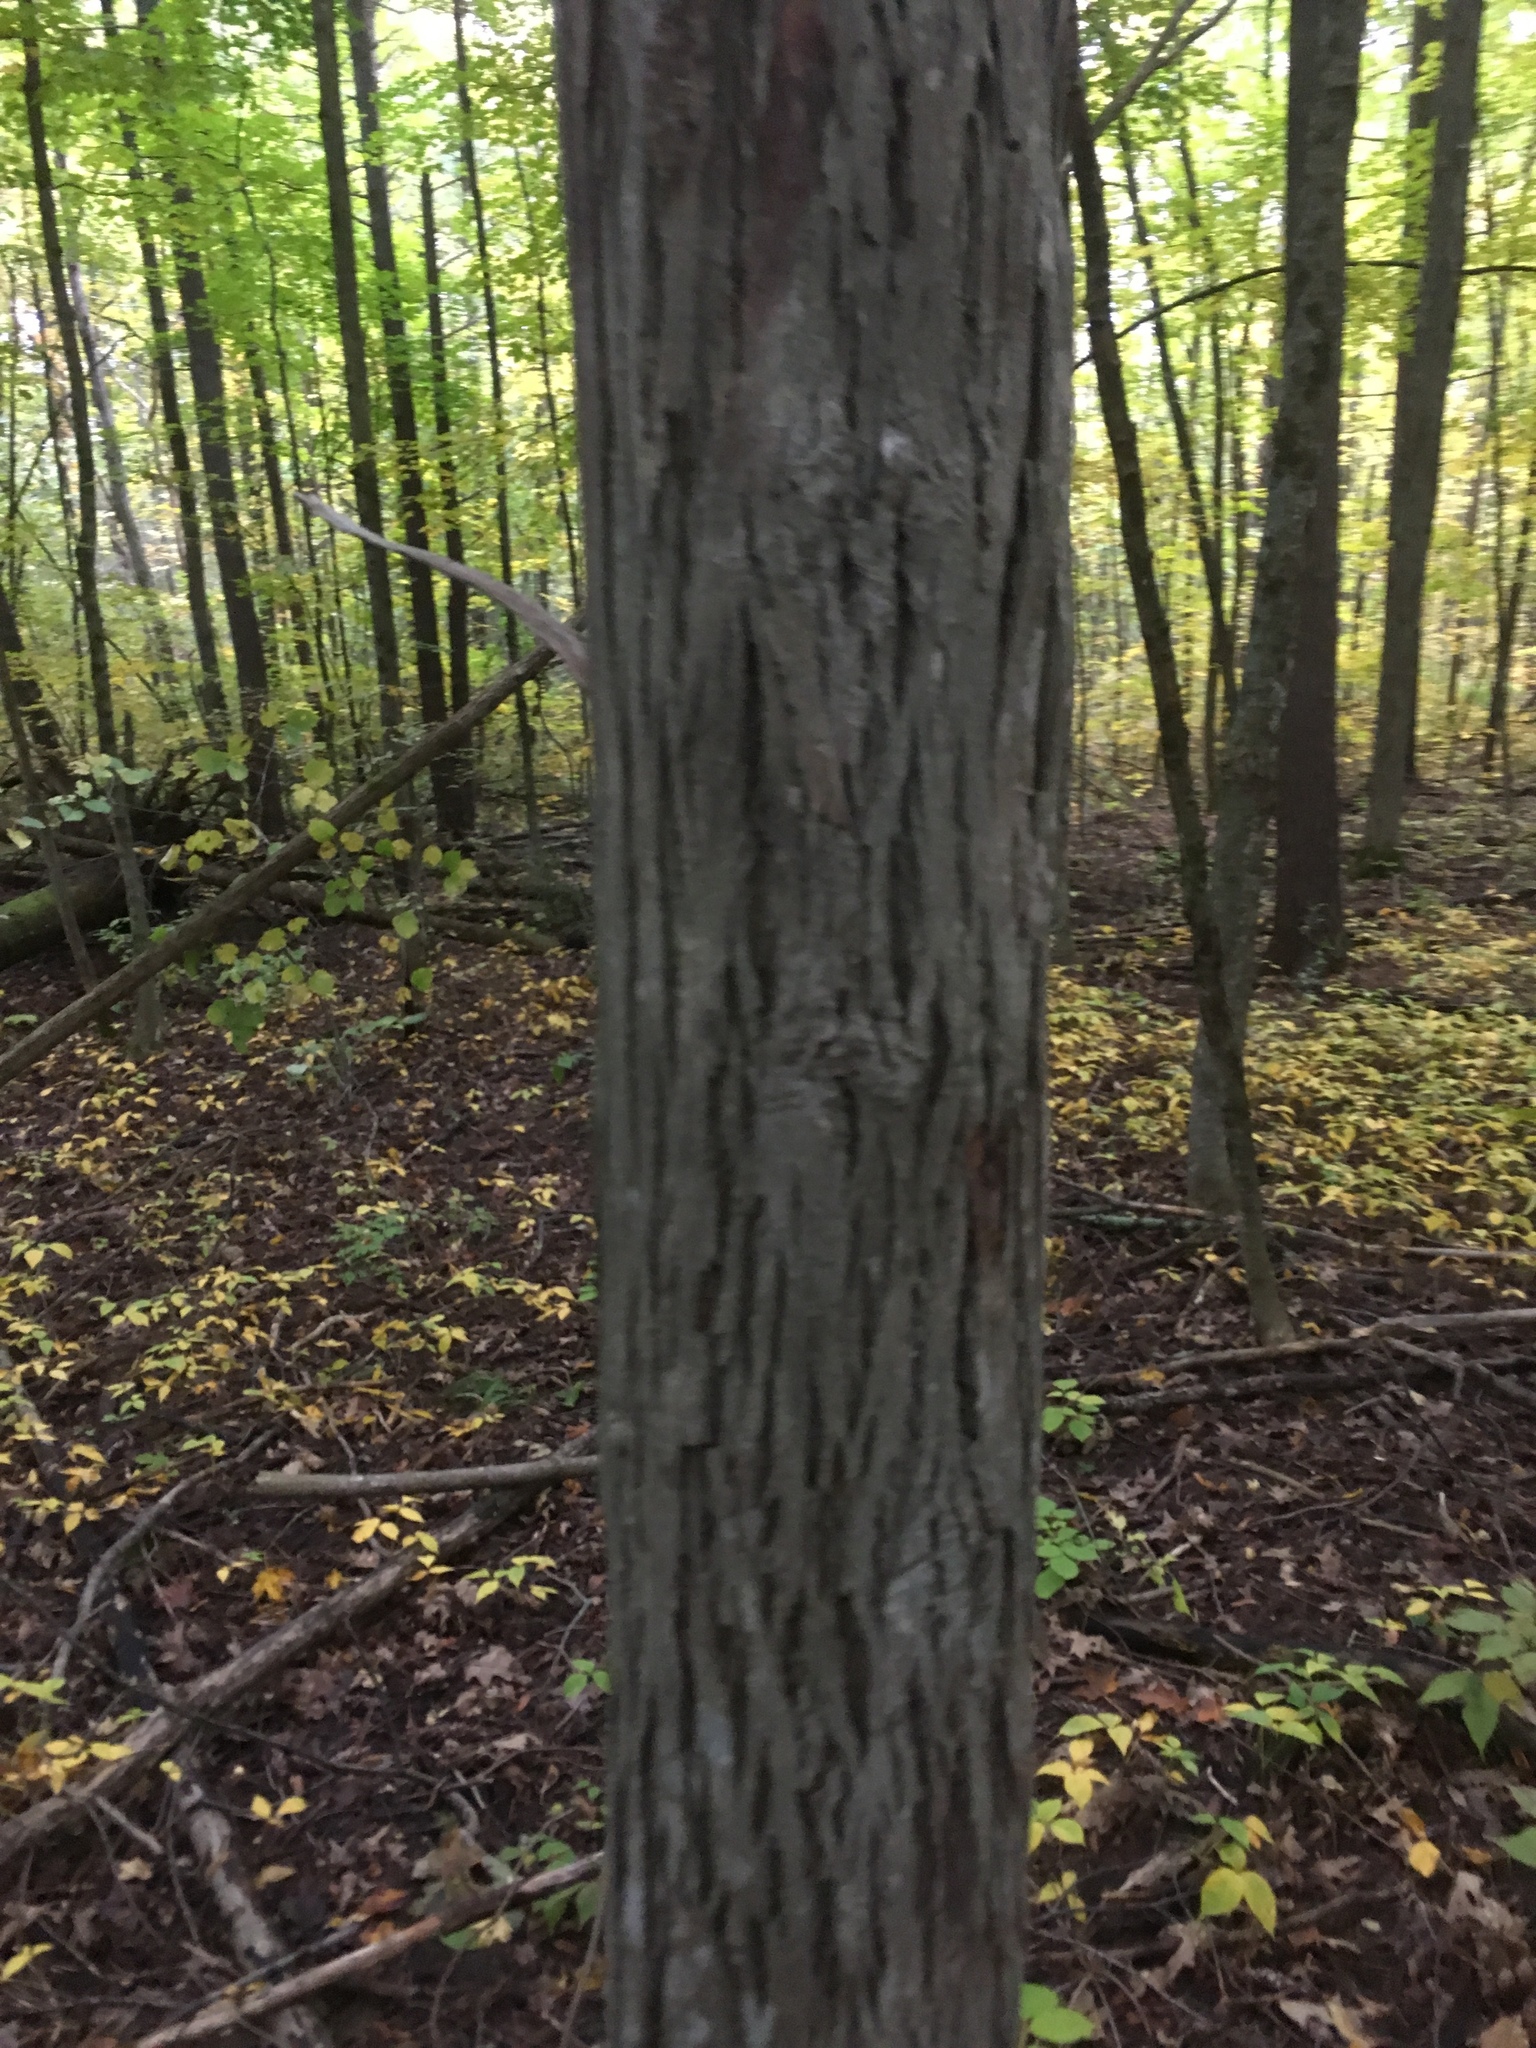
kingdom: Plantae
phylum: Tracheophyta
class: Magnoliopsida
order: Fagales
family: Juglandaceae
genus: Carya
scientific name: Carya ovata
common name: Shagbark hickory
